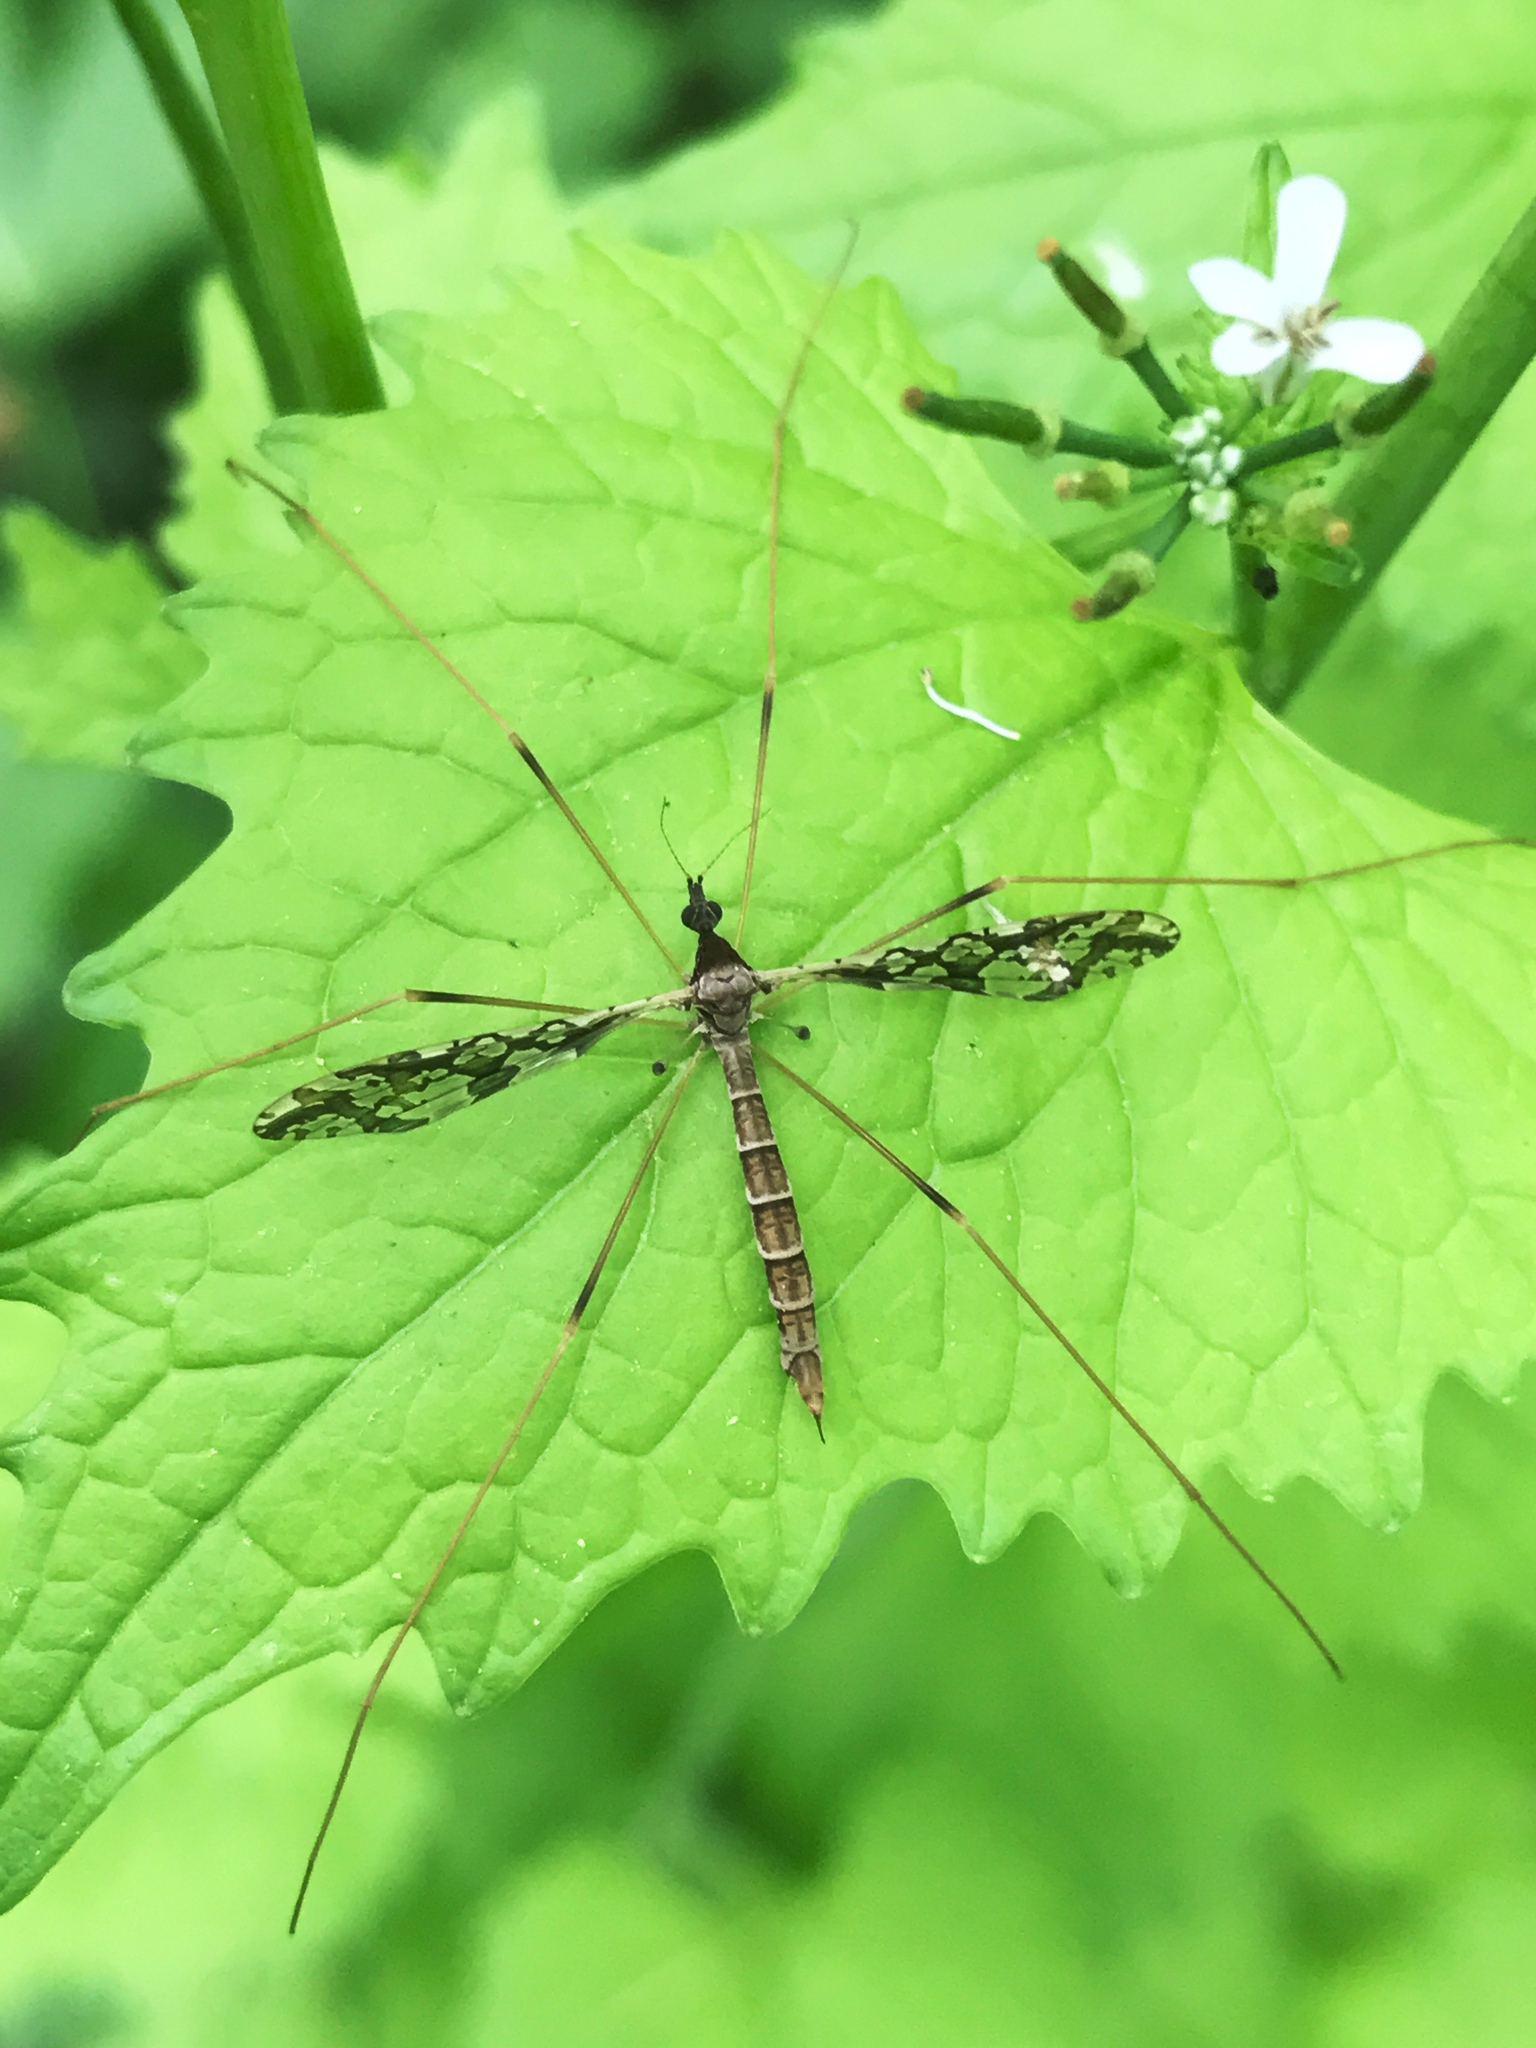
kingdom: Animalia
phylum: Arthropoda
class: Insecta
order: Diptera
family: Limoniidae
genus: Epiphragma
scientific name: Epiphragma solatrix
